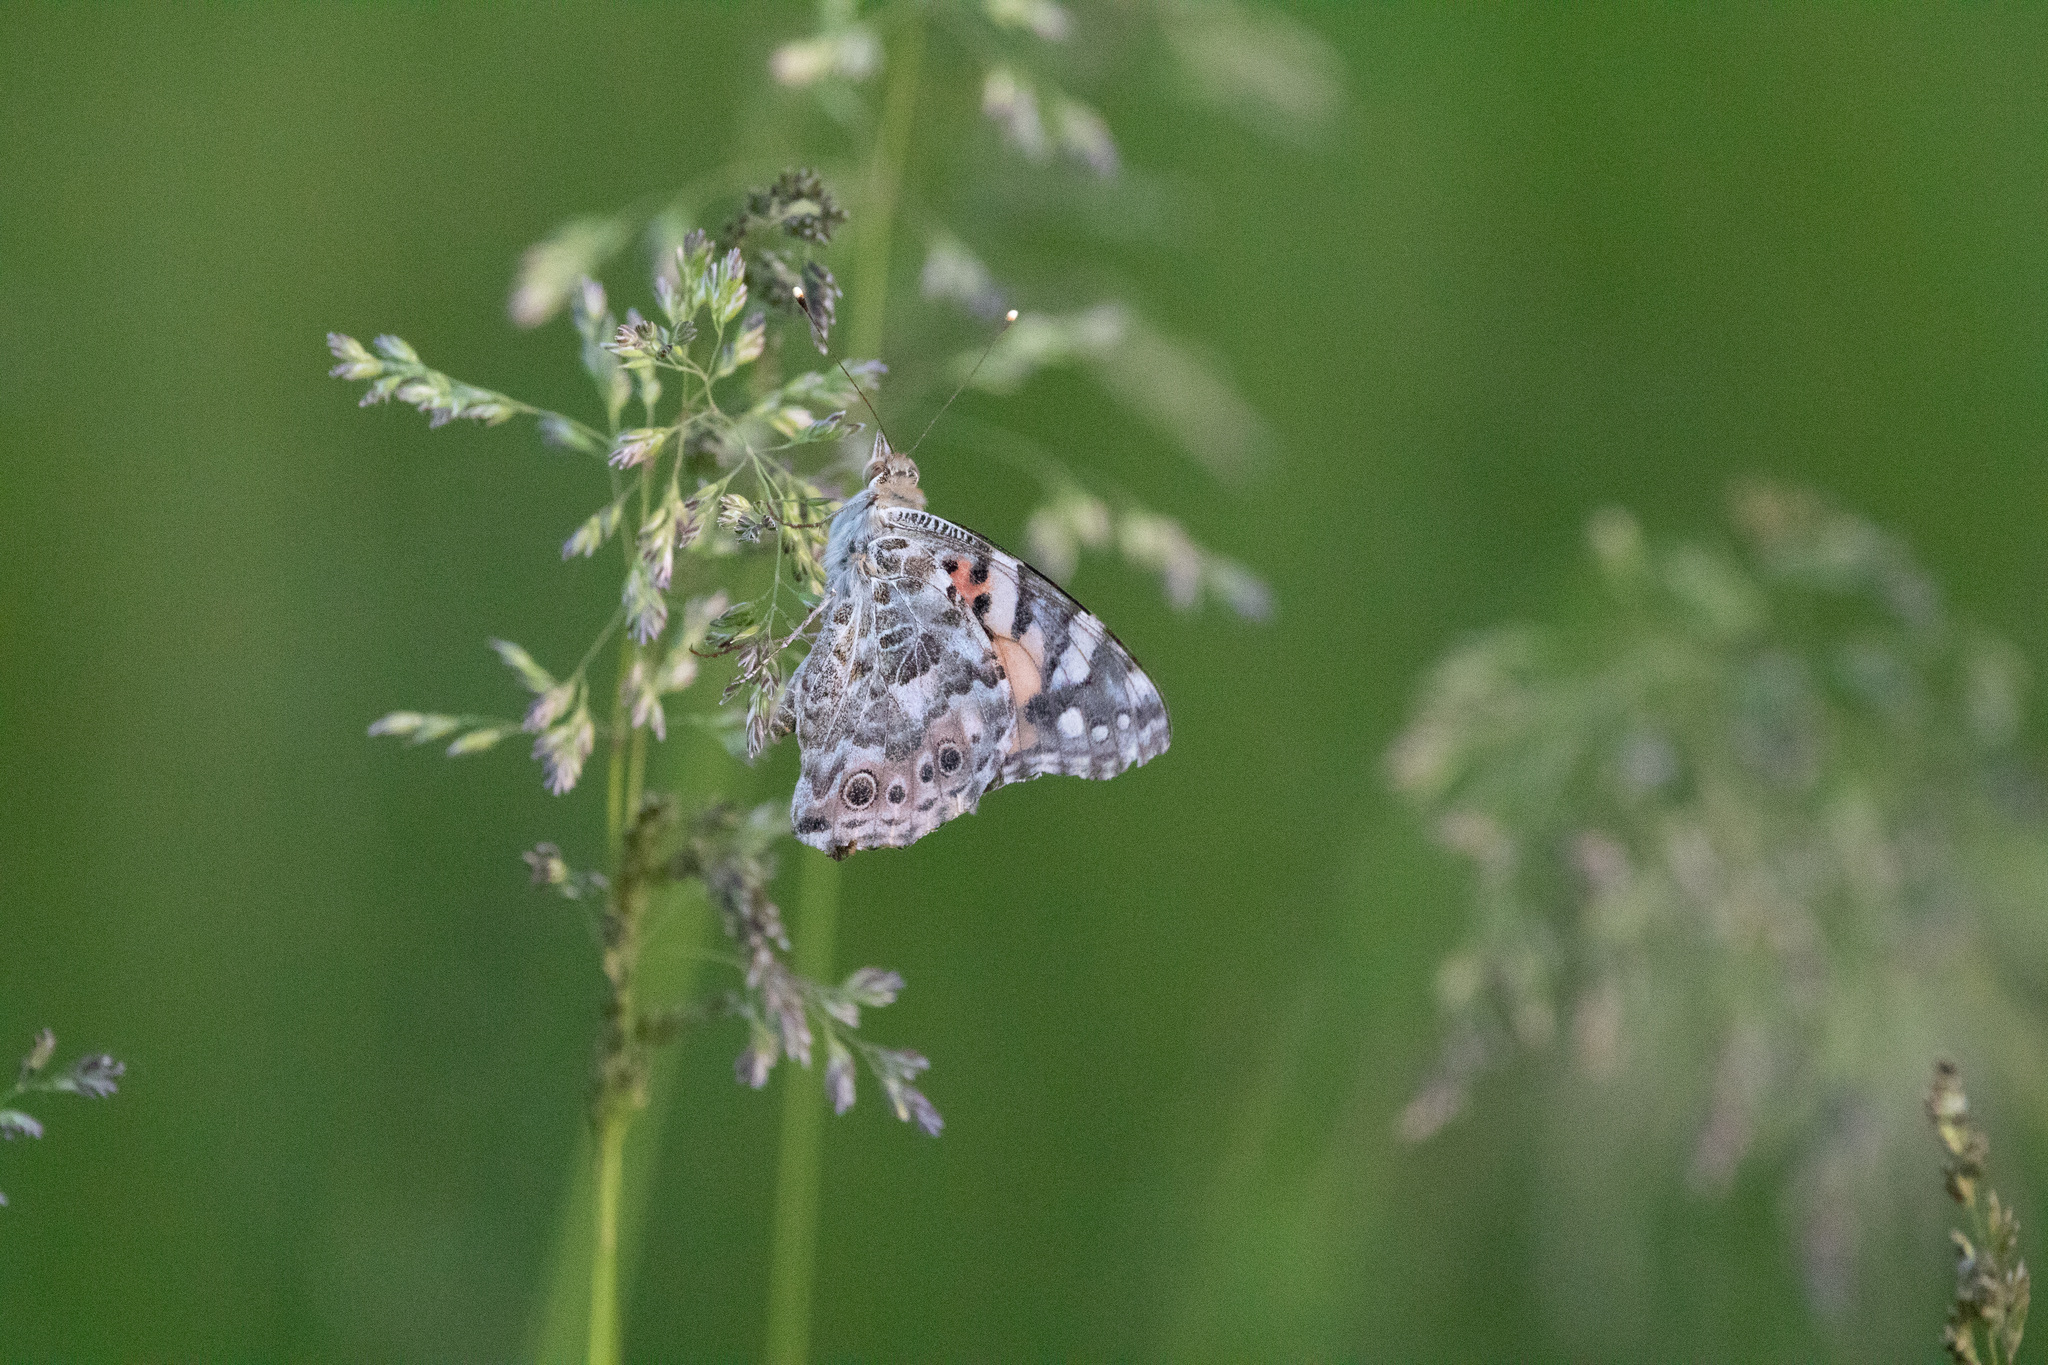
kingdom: Animalia
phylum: Arthropoda
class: Insecta
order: Lepidoptera
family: Nymphalidae
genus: Vanessa
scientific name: Vanessa cardui
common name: Painted lady
